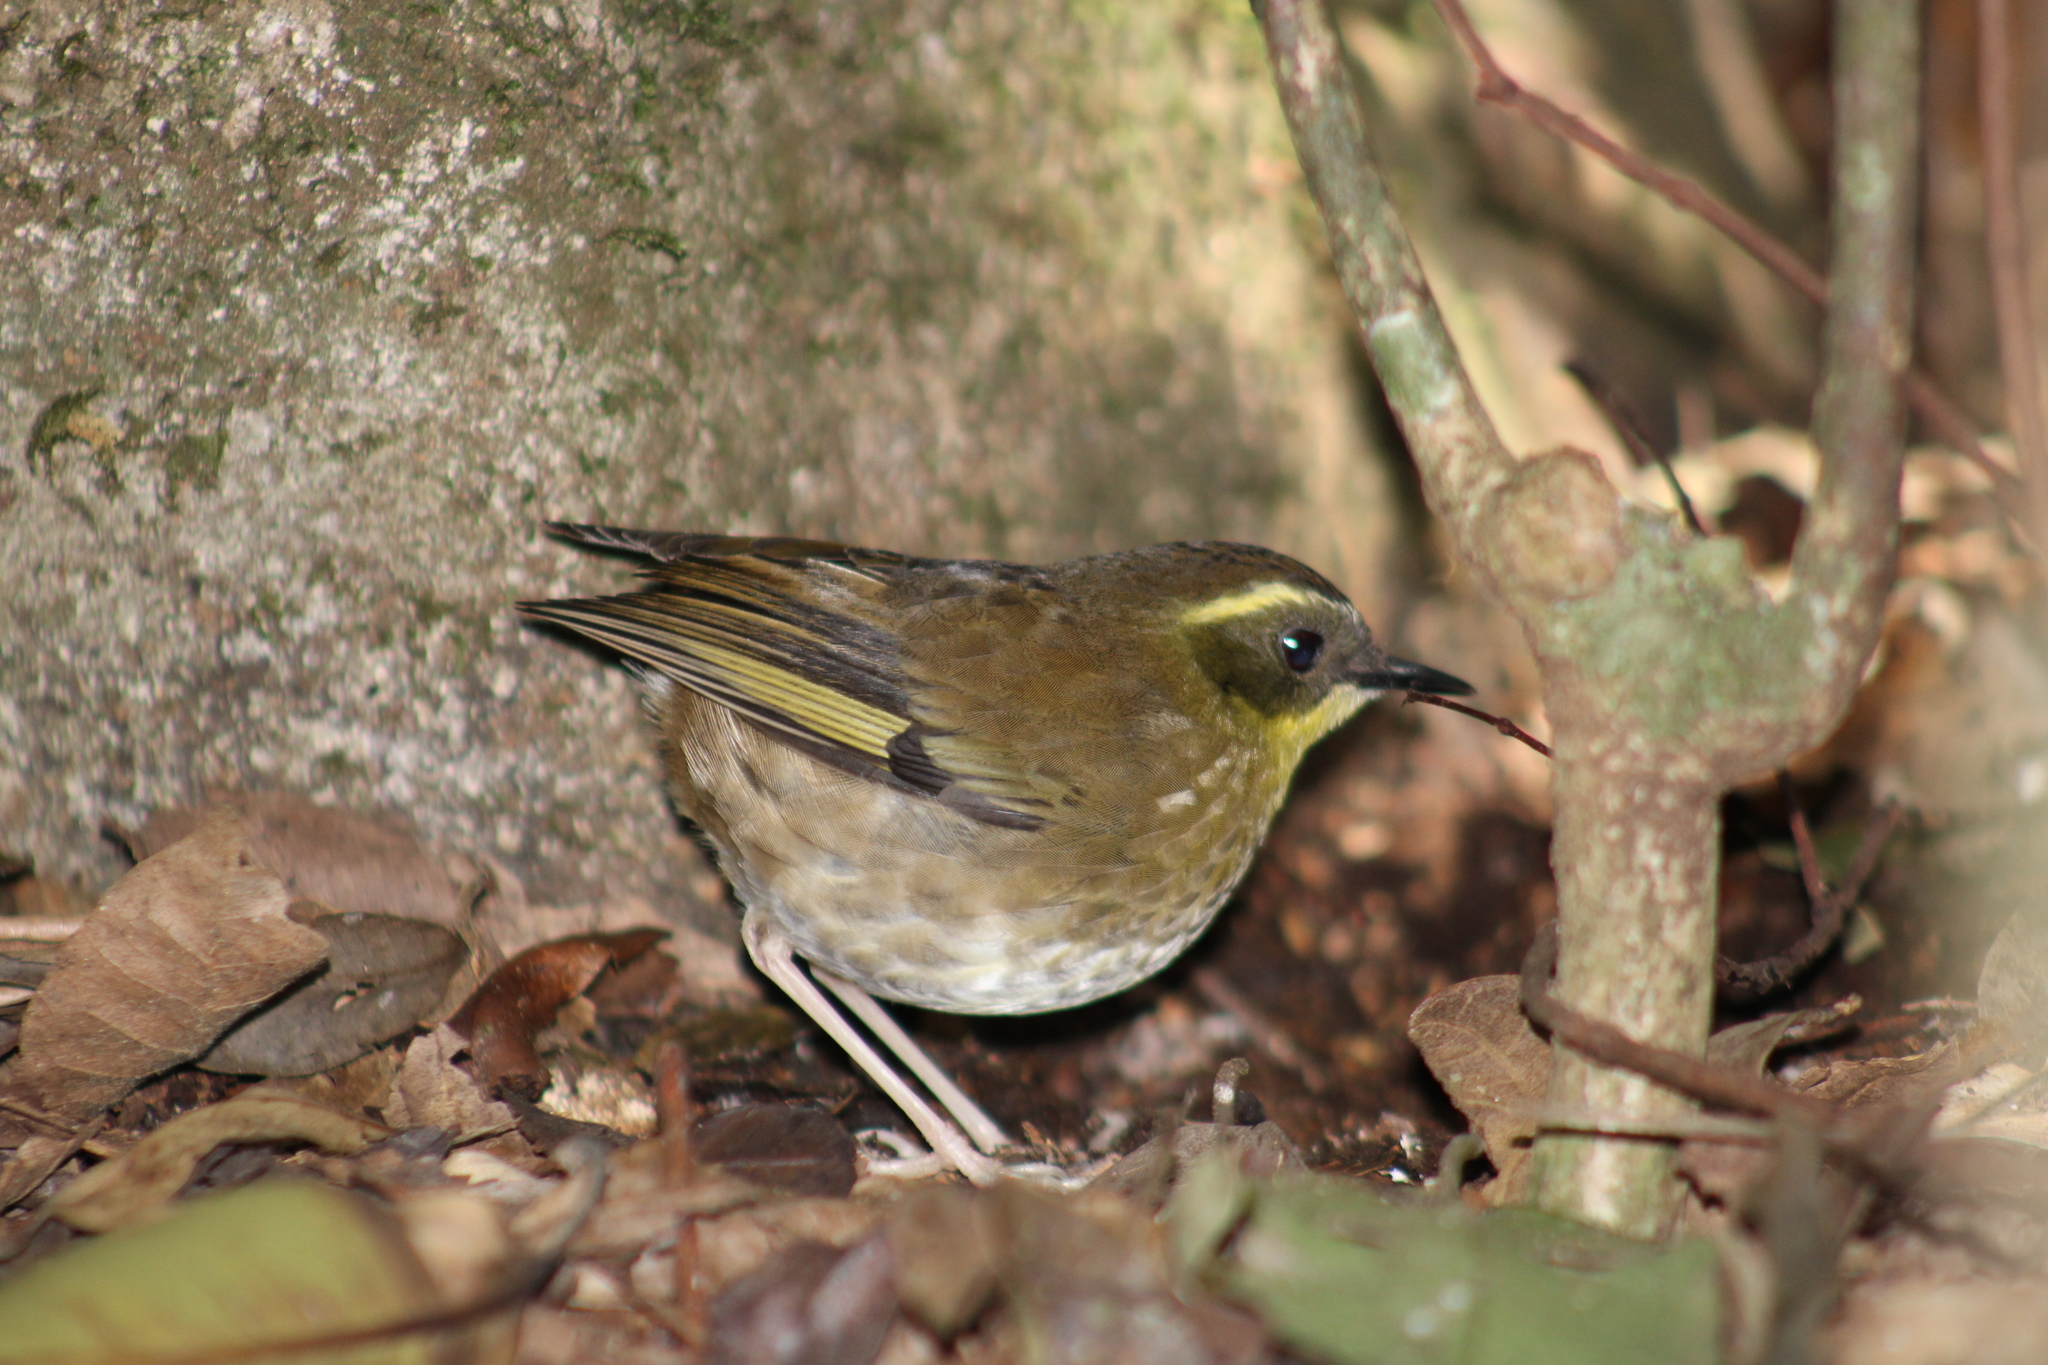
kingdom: Animalia
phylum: Chordata
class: Aves
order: Passeriformes
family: Acanthizidae
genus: Sericornis
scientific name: Sericornis citreogularis
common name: Yellow-throated scrubwren
